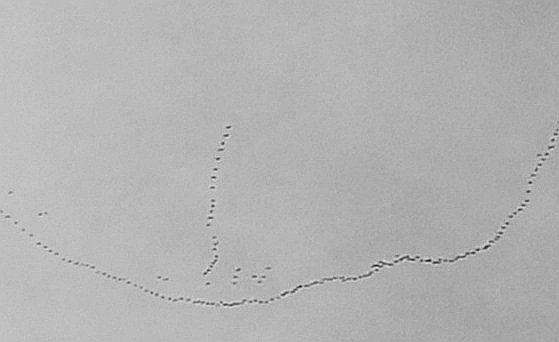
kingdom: Animalia
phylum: Chordata
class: Aves
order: Gruiformes
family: Gruidae
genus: Grus
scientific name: Grus grus
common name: Common crane
